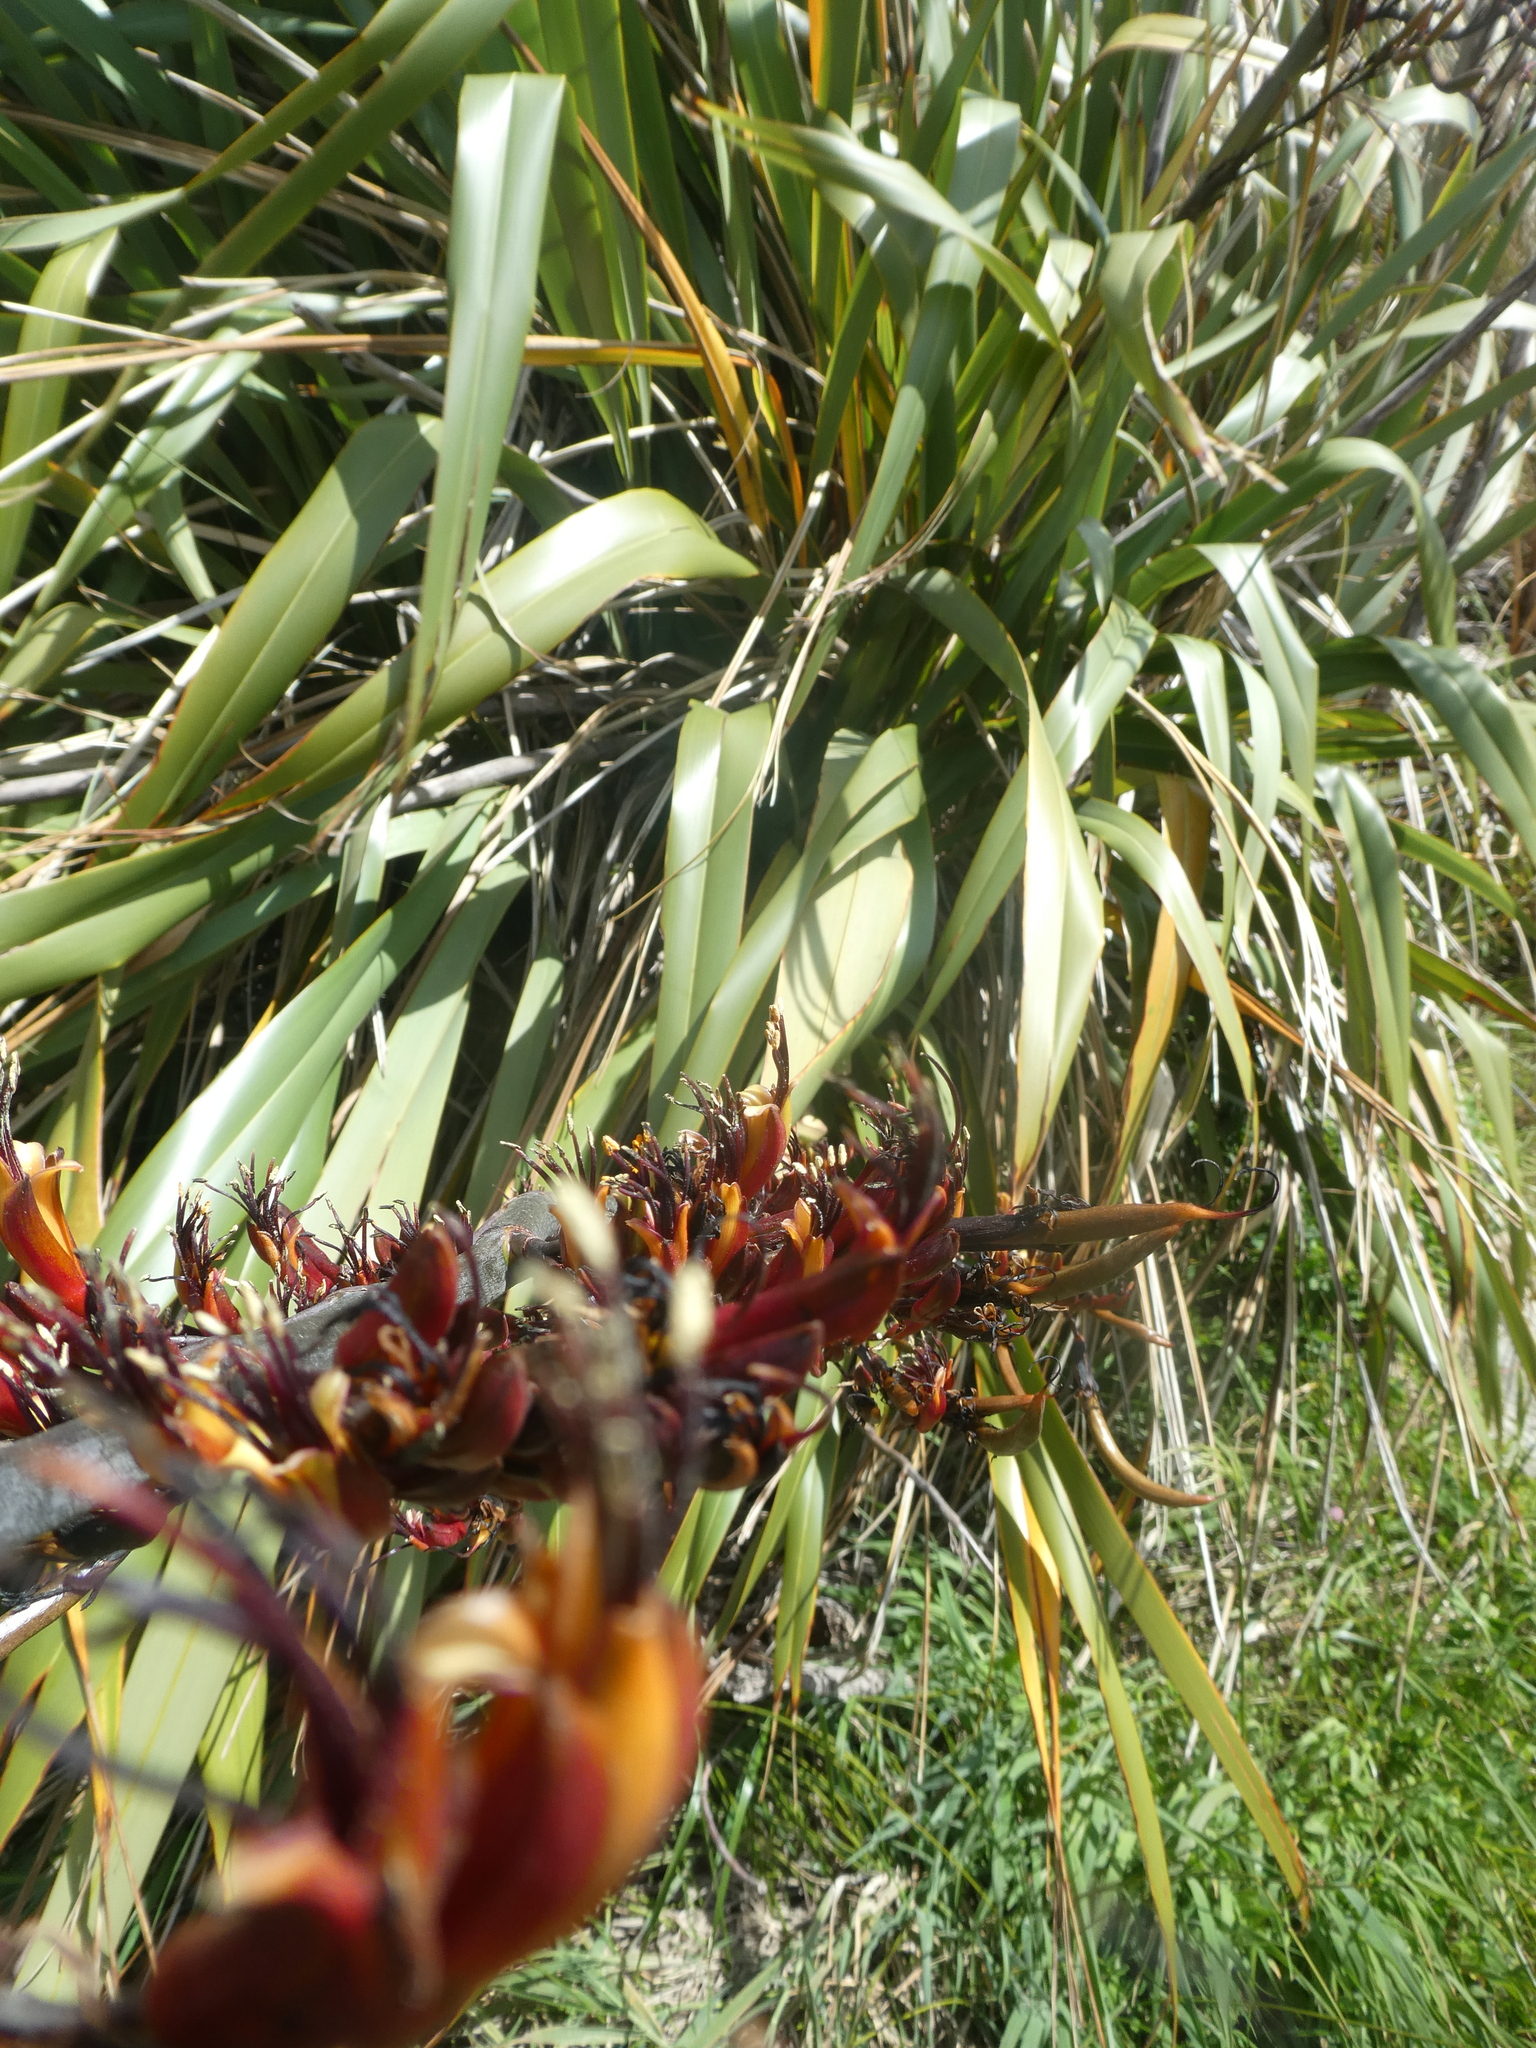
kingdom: Plantae
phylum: Tracheophyta
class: Liliopsida
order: Asparagales
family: Asphodelaceae
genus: Phormium
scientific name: Phormium colensoi
